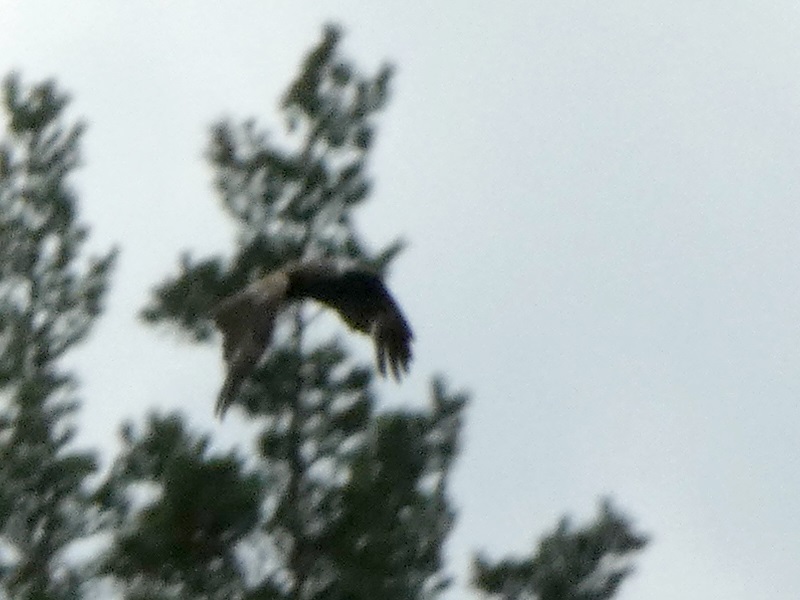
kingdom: Animalia
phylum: Chordata
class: Aves
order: Accipitriformes
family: Accipitridae
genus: Milvus
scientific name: Milvus migrans
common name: Black kite
